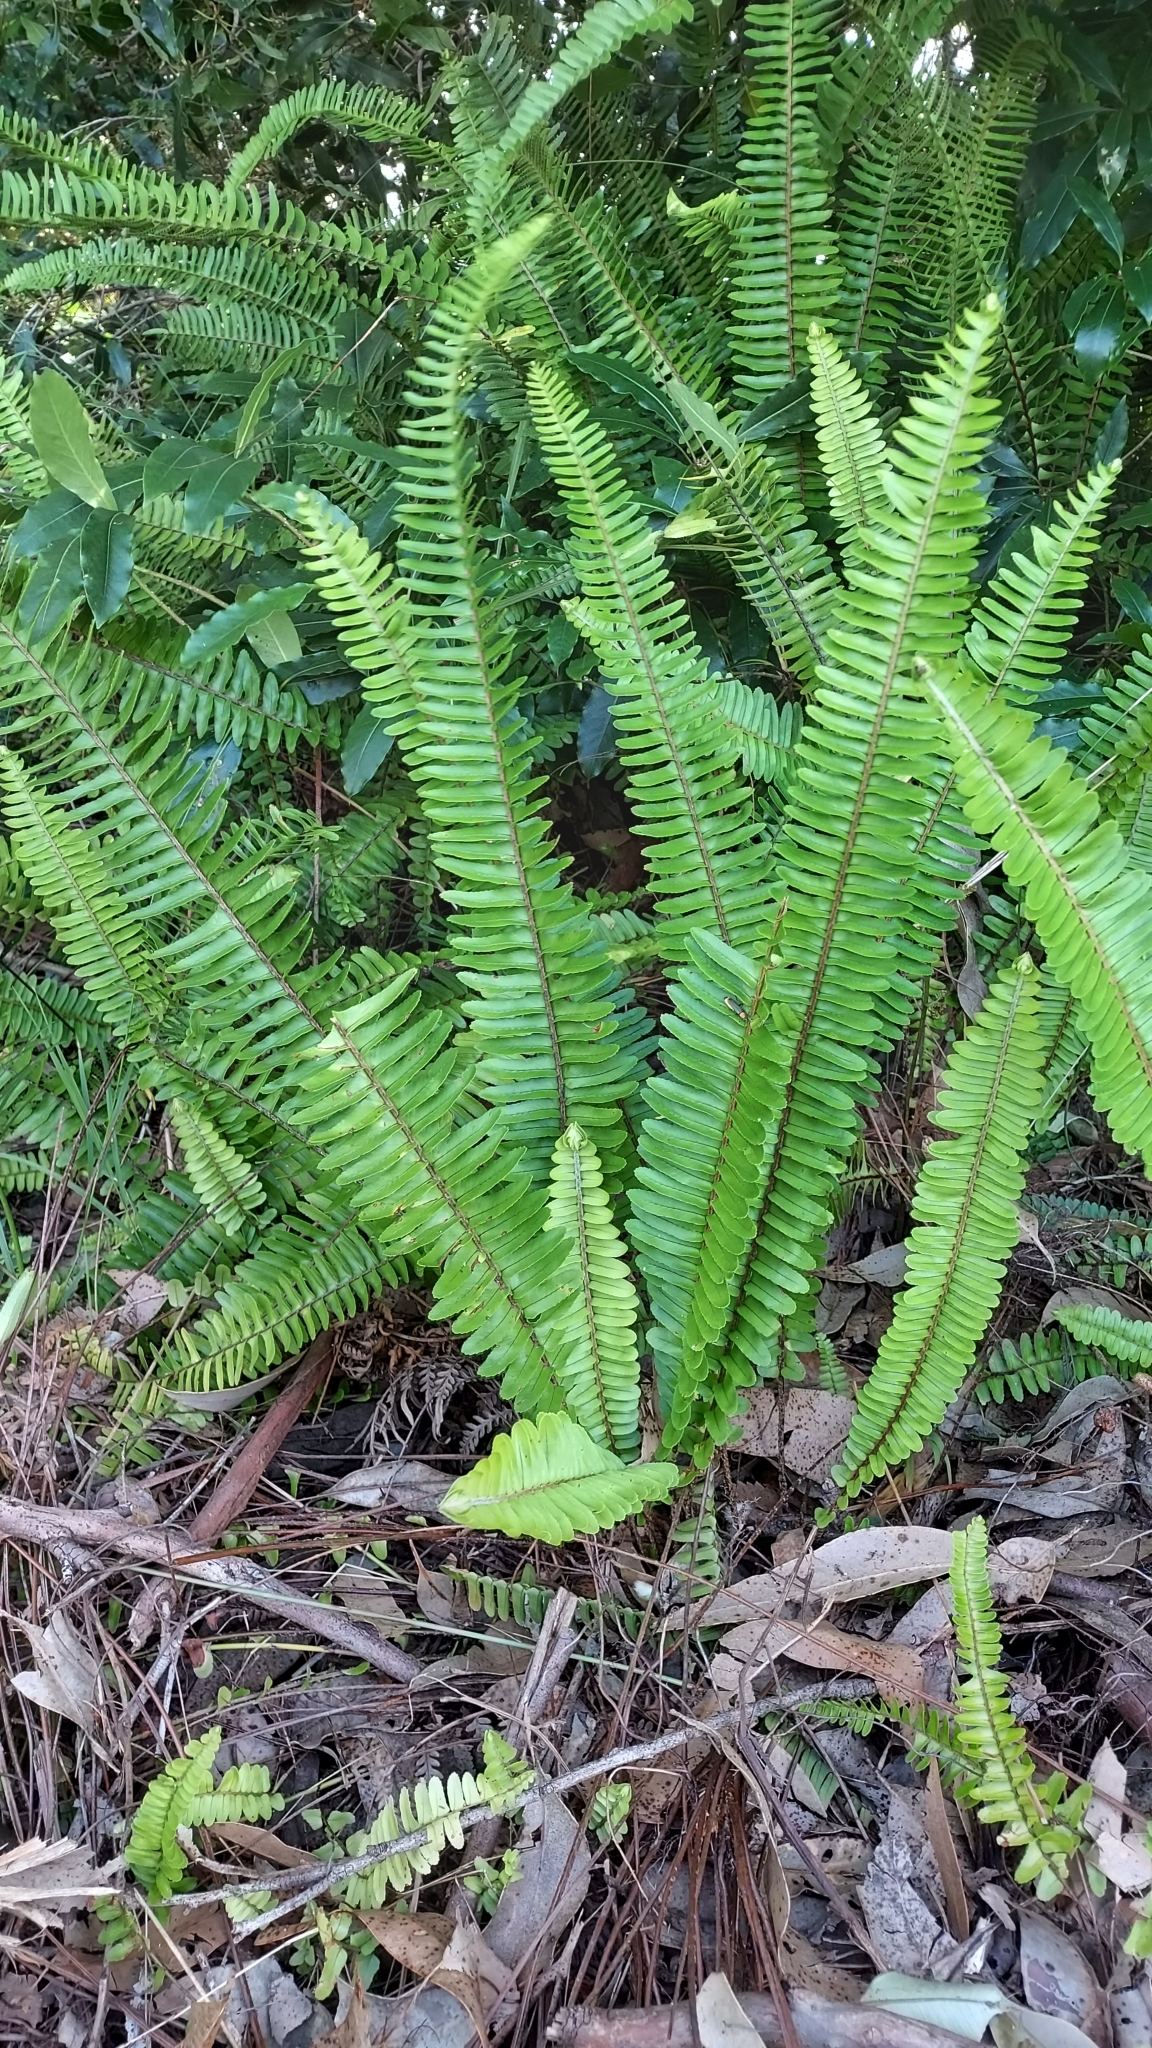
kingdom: Plantae
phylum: Tracheophyta
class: Polypodiopsida
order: Polypodiales
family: Nephrolepidaceae
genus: Nephrolepis
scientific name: Nephrolepis cordifolia
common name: Narrow swordfern
